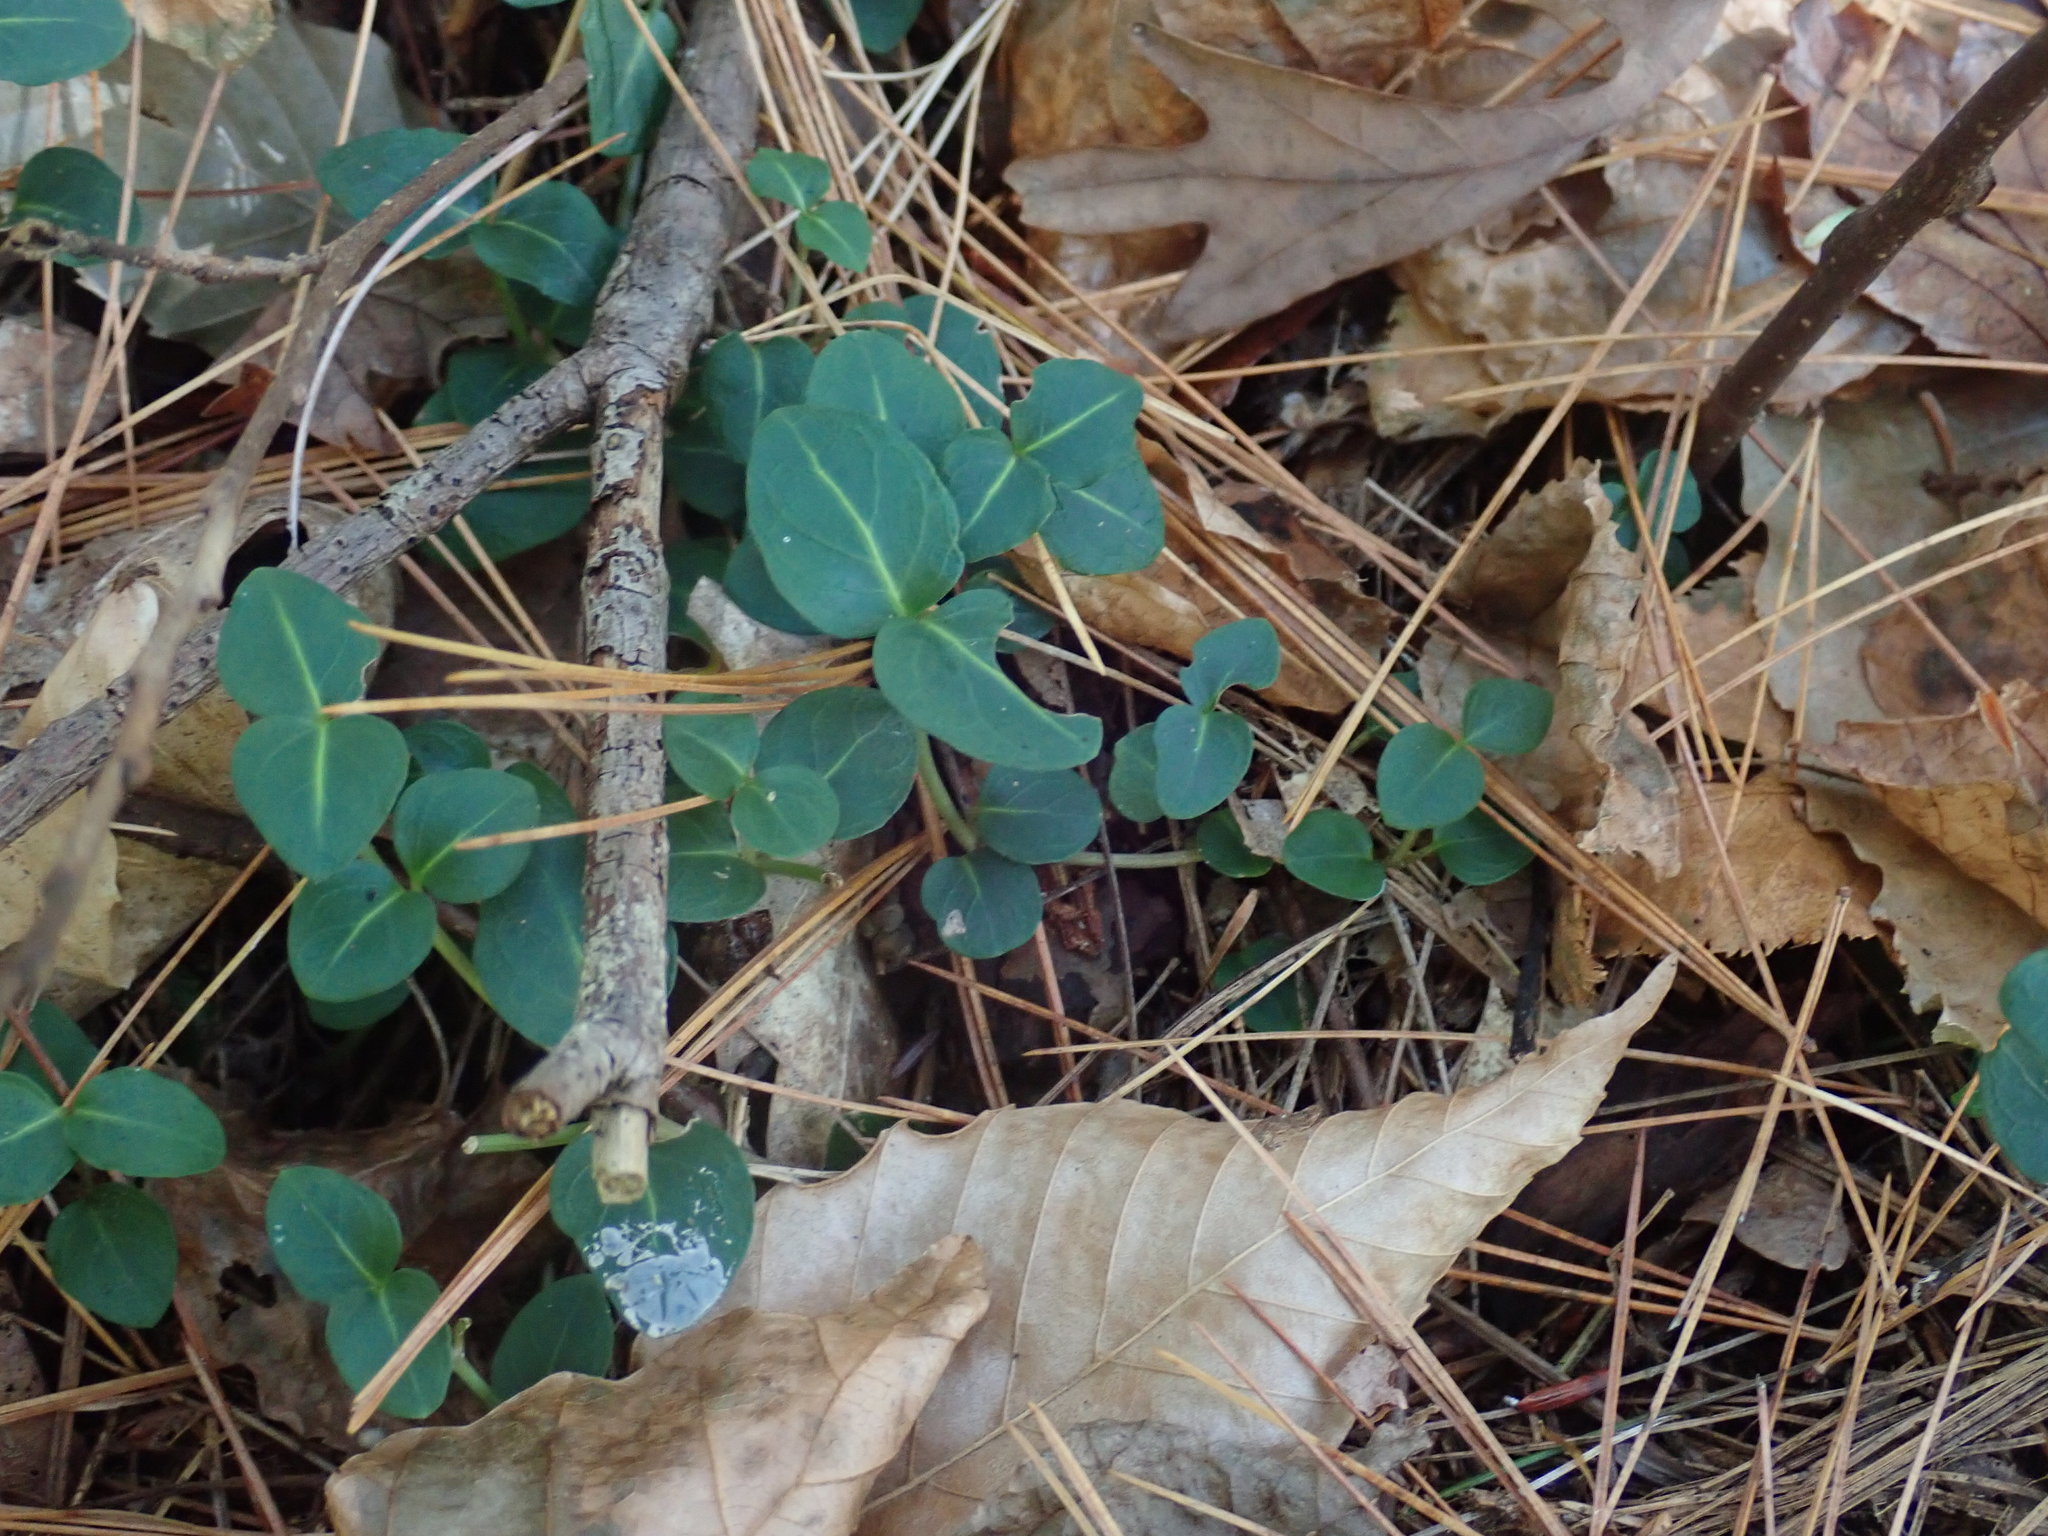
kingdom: Plantae
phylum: Tracheophyta
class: Magnoliopsida
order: Gentianales
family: Rubiaceae
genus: Mitchella
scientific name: Mitchella repens
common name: Partridge-berry
